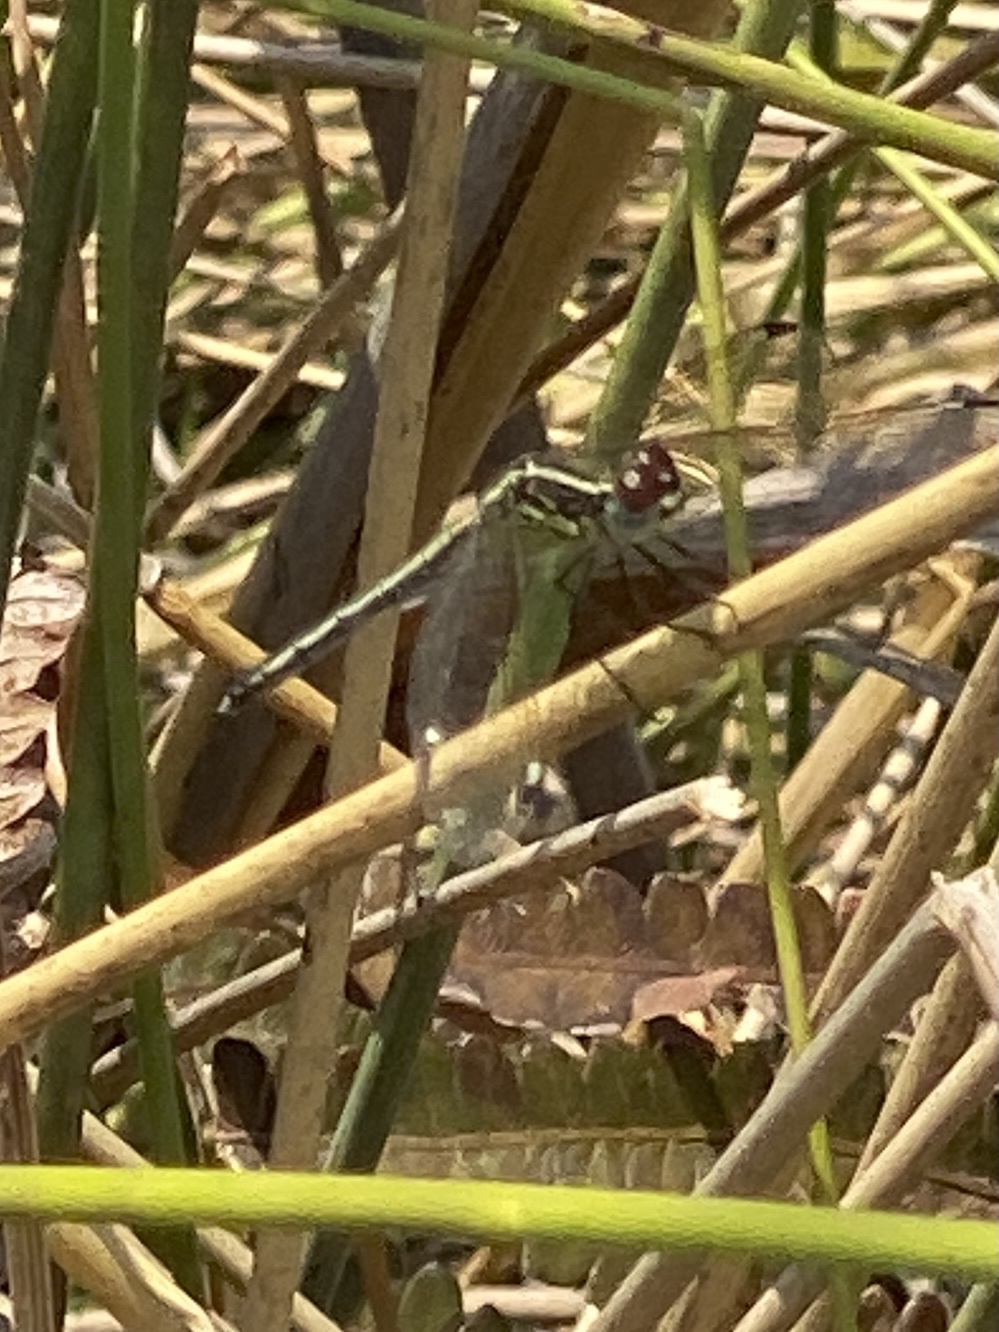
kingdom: Animalia
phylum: Arthropoda
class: Insecta
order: Odonata
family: Libellulidae
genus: Hemistigma
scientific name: Hemistigma albipunctum
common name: African pied-spot
